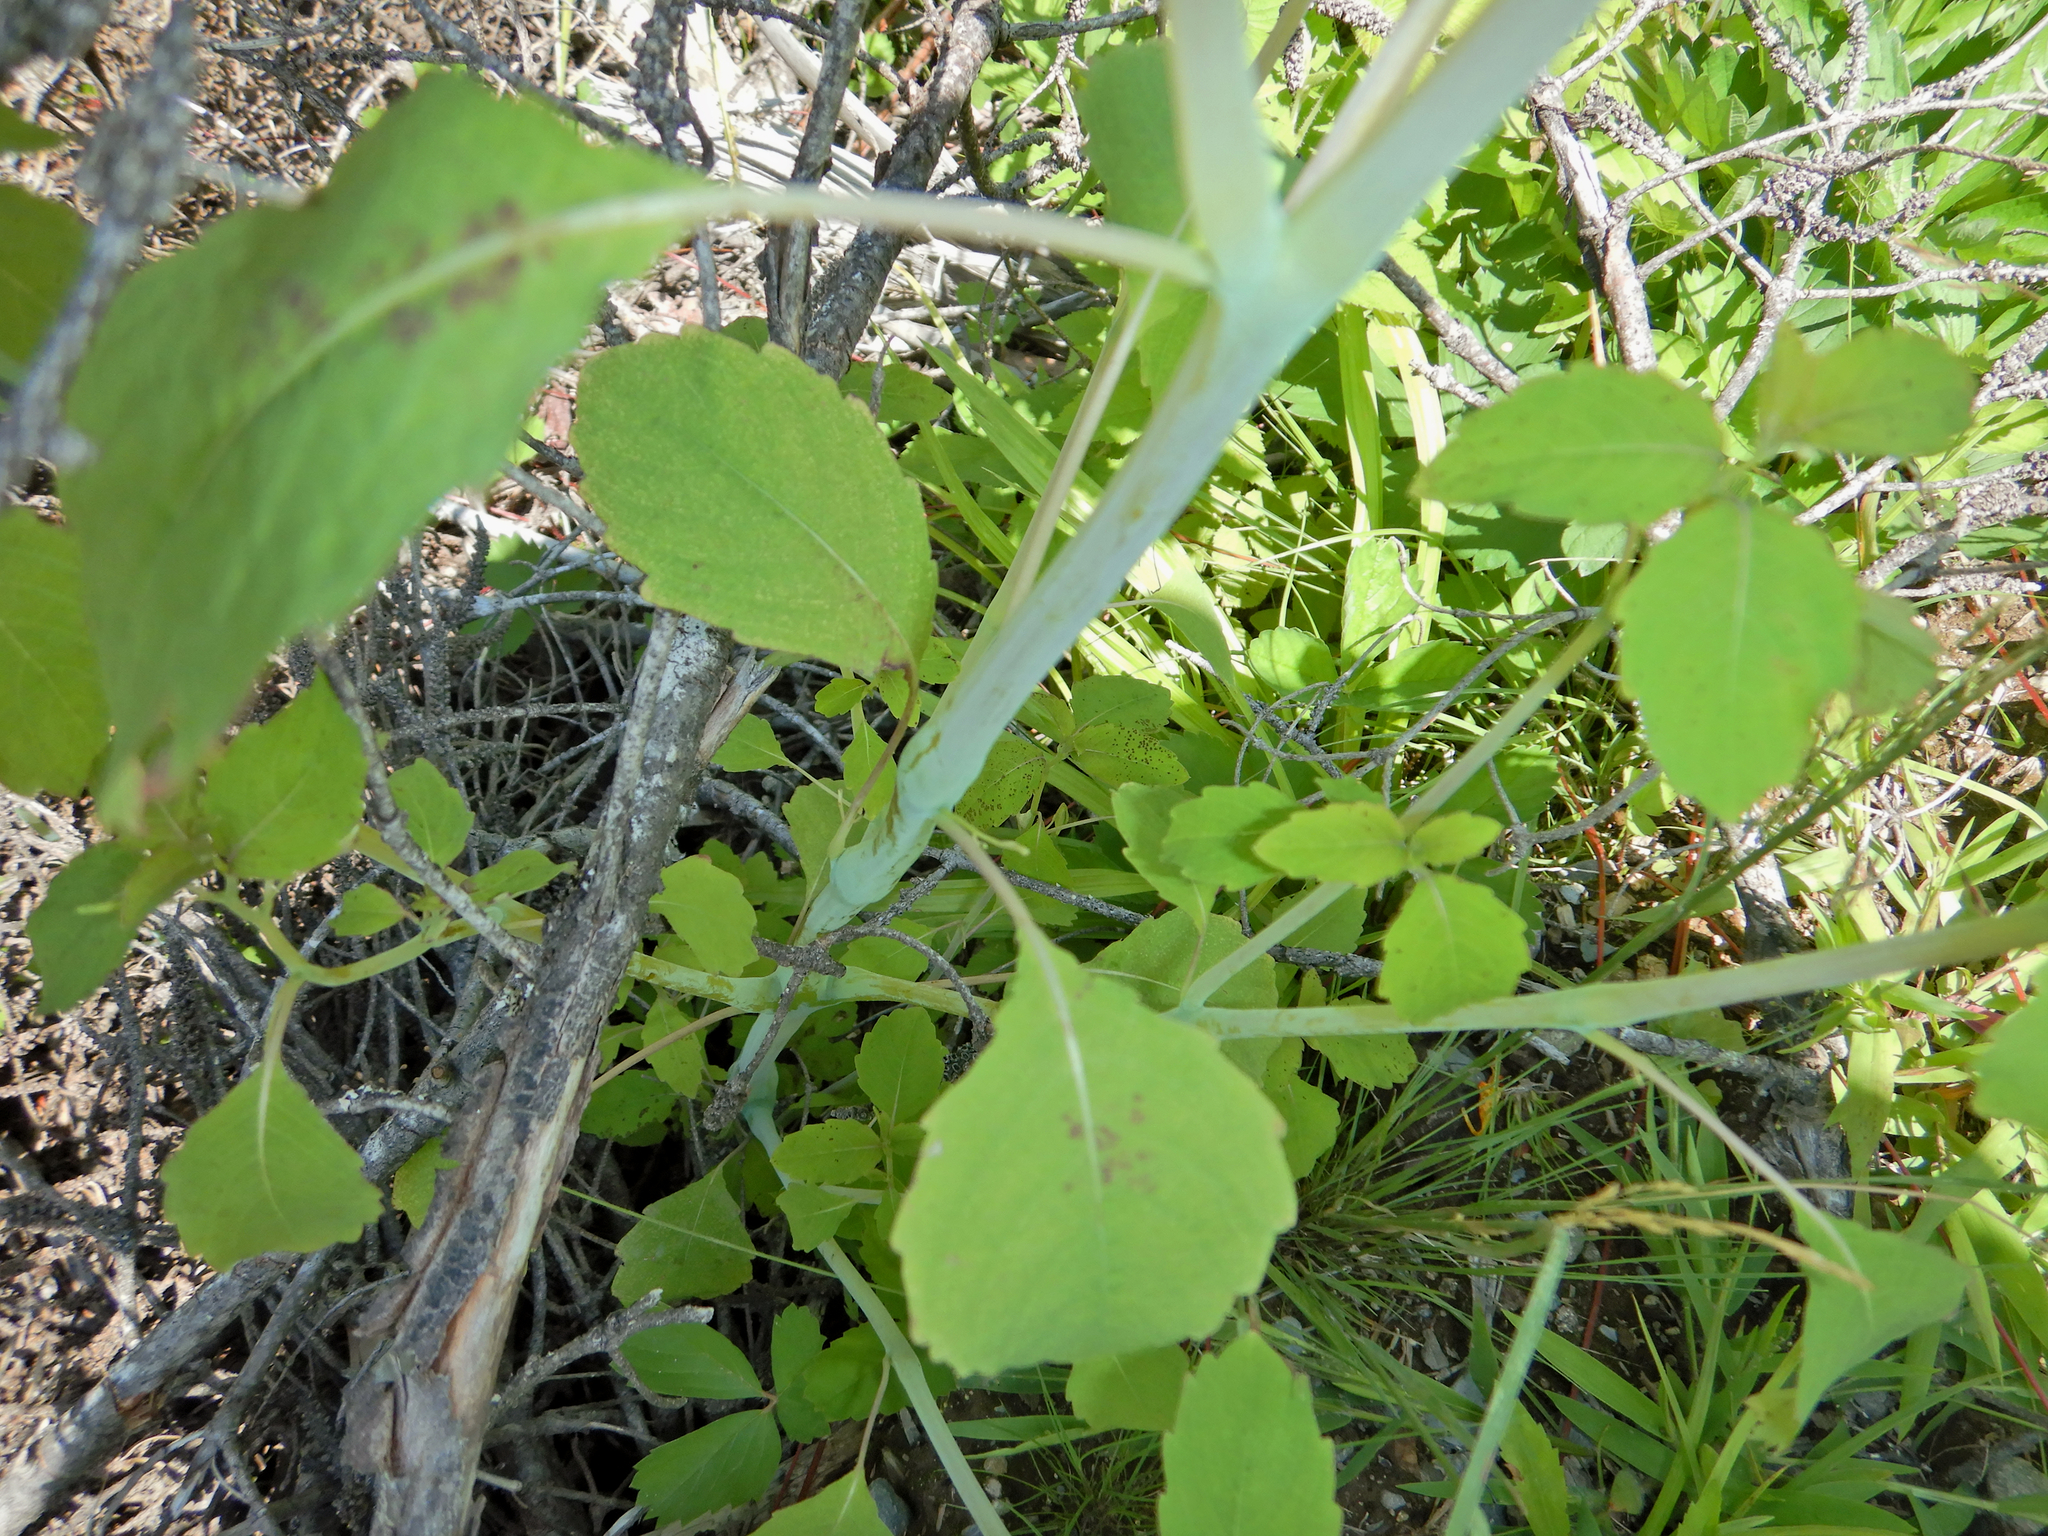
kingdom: Plantae
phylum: Tracheophyta
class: Magnoliopsida
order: Ericales
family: Balsaminaceae
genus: Impatiens
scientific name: Impatiens capensis
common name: Orange balsam
